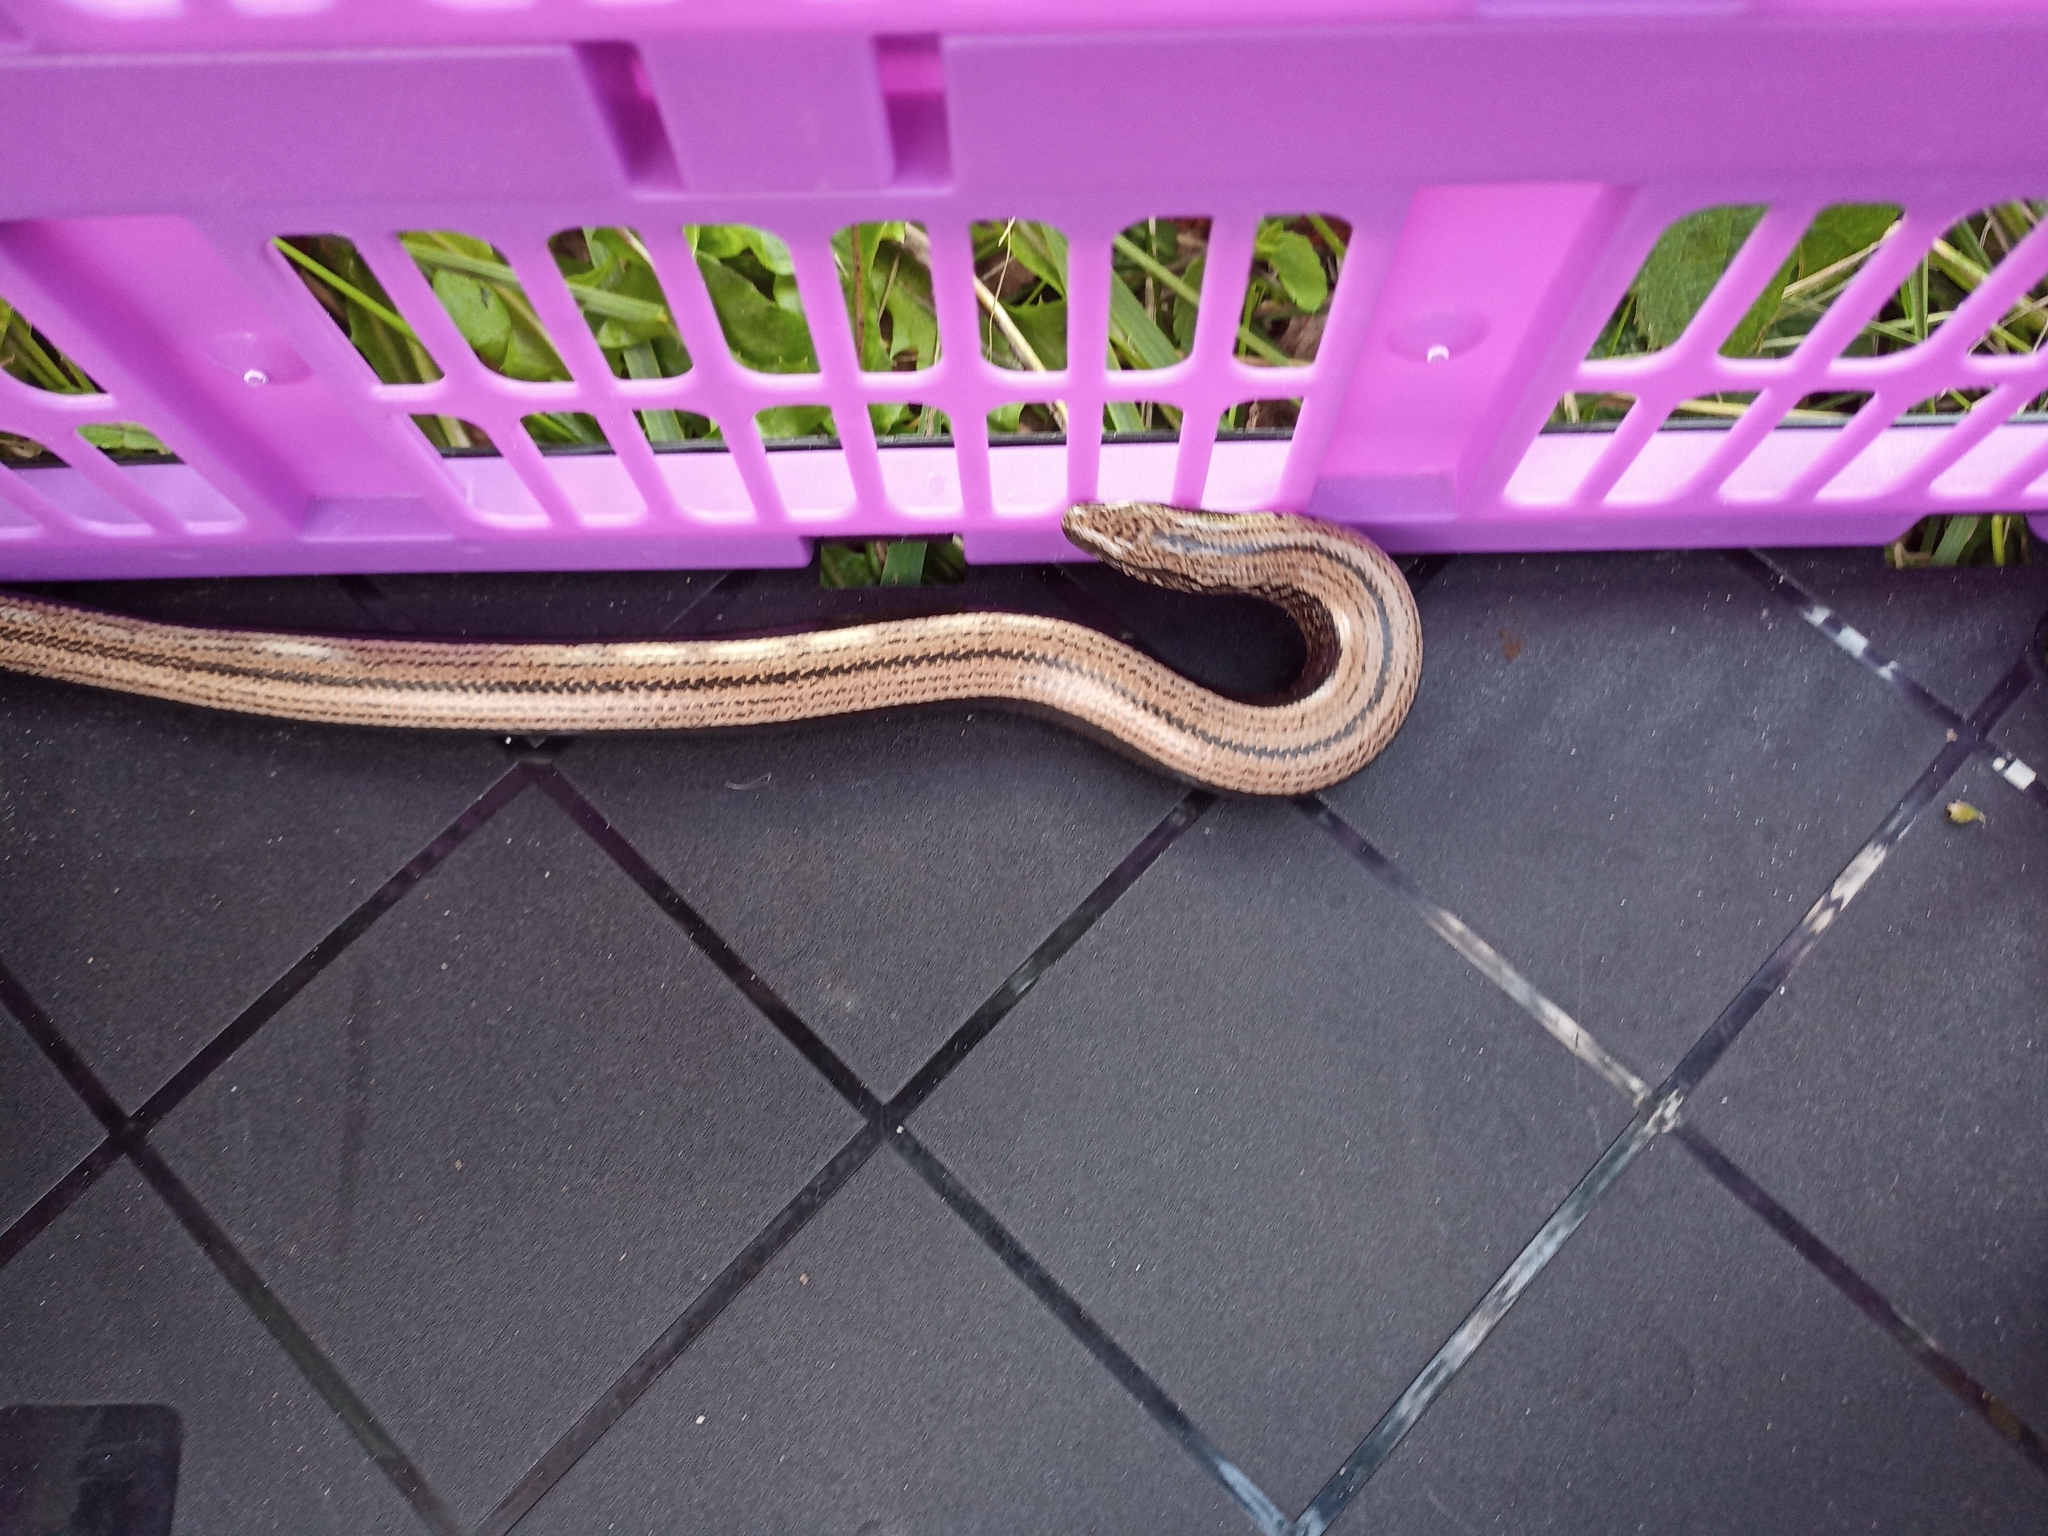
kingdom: Animalia
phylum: Chordata
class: Squamata
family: Anguidae
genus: Anguis
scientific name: Anguis fragilis
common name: Slow worm
